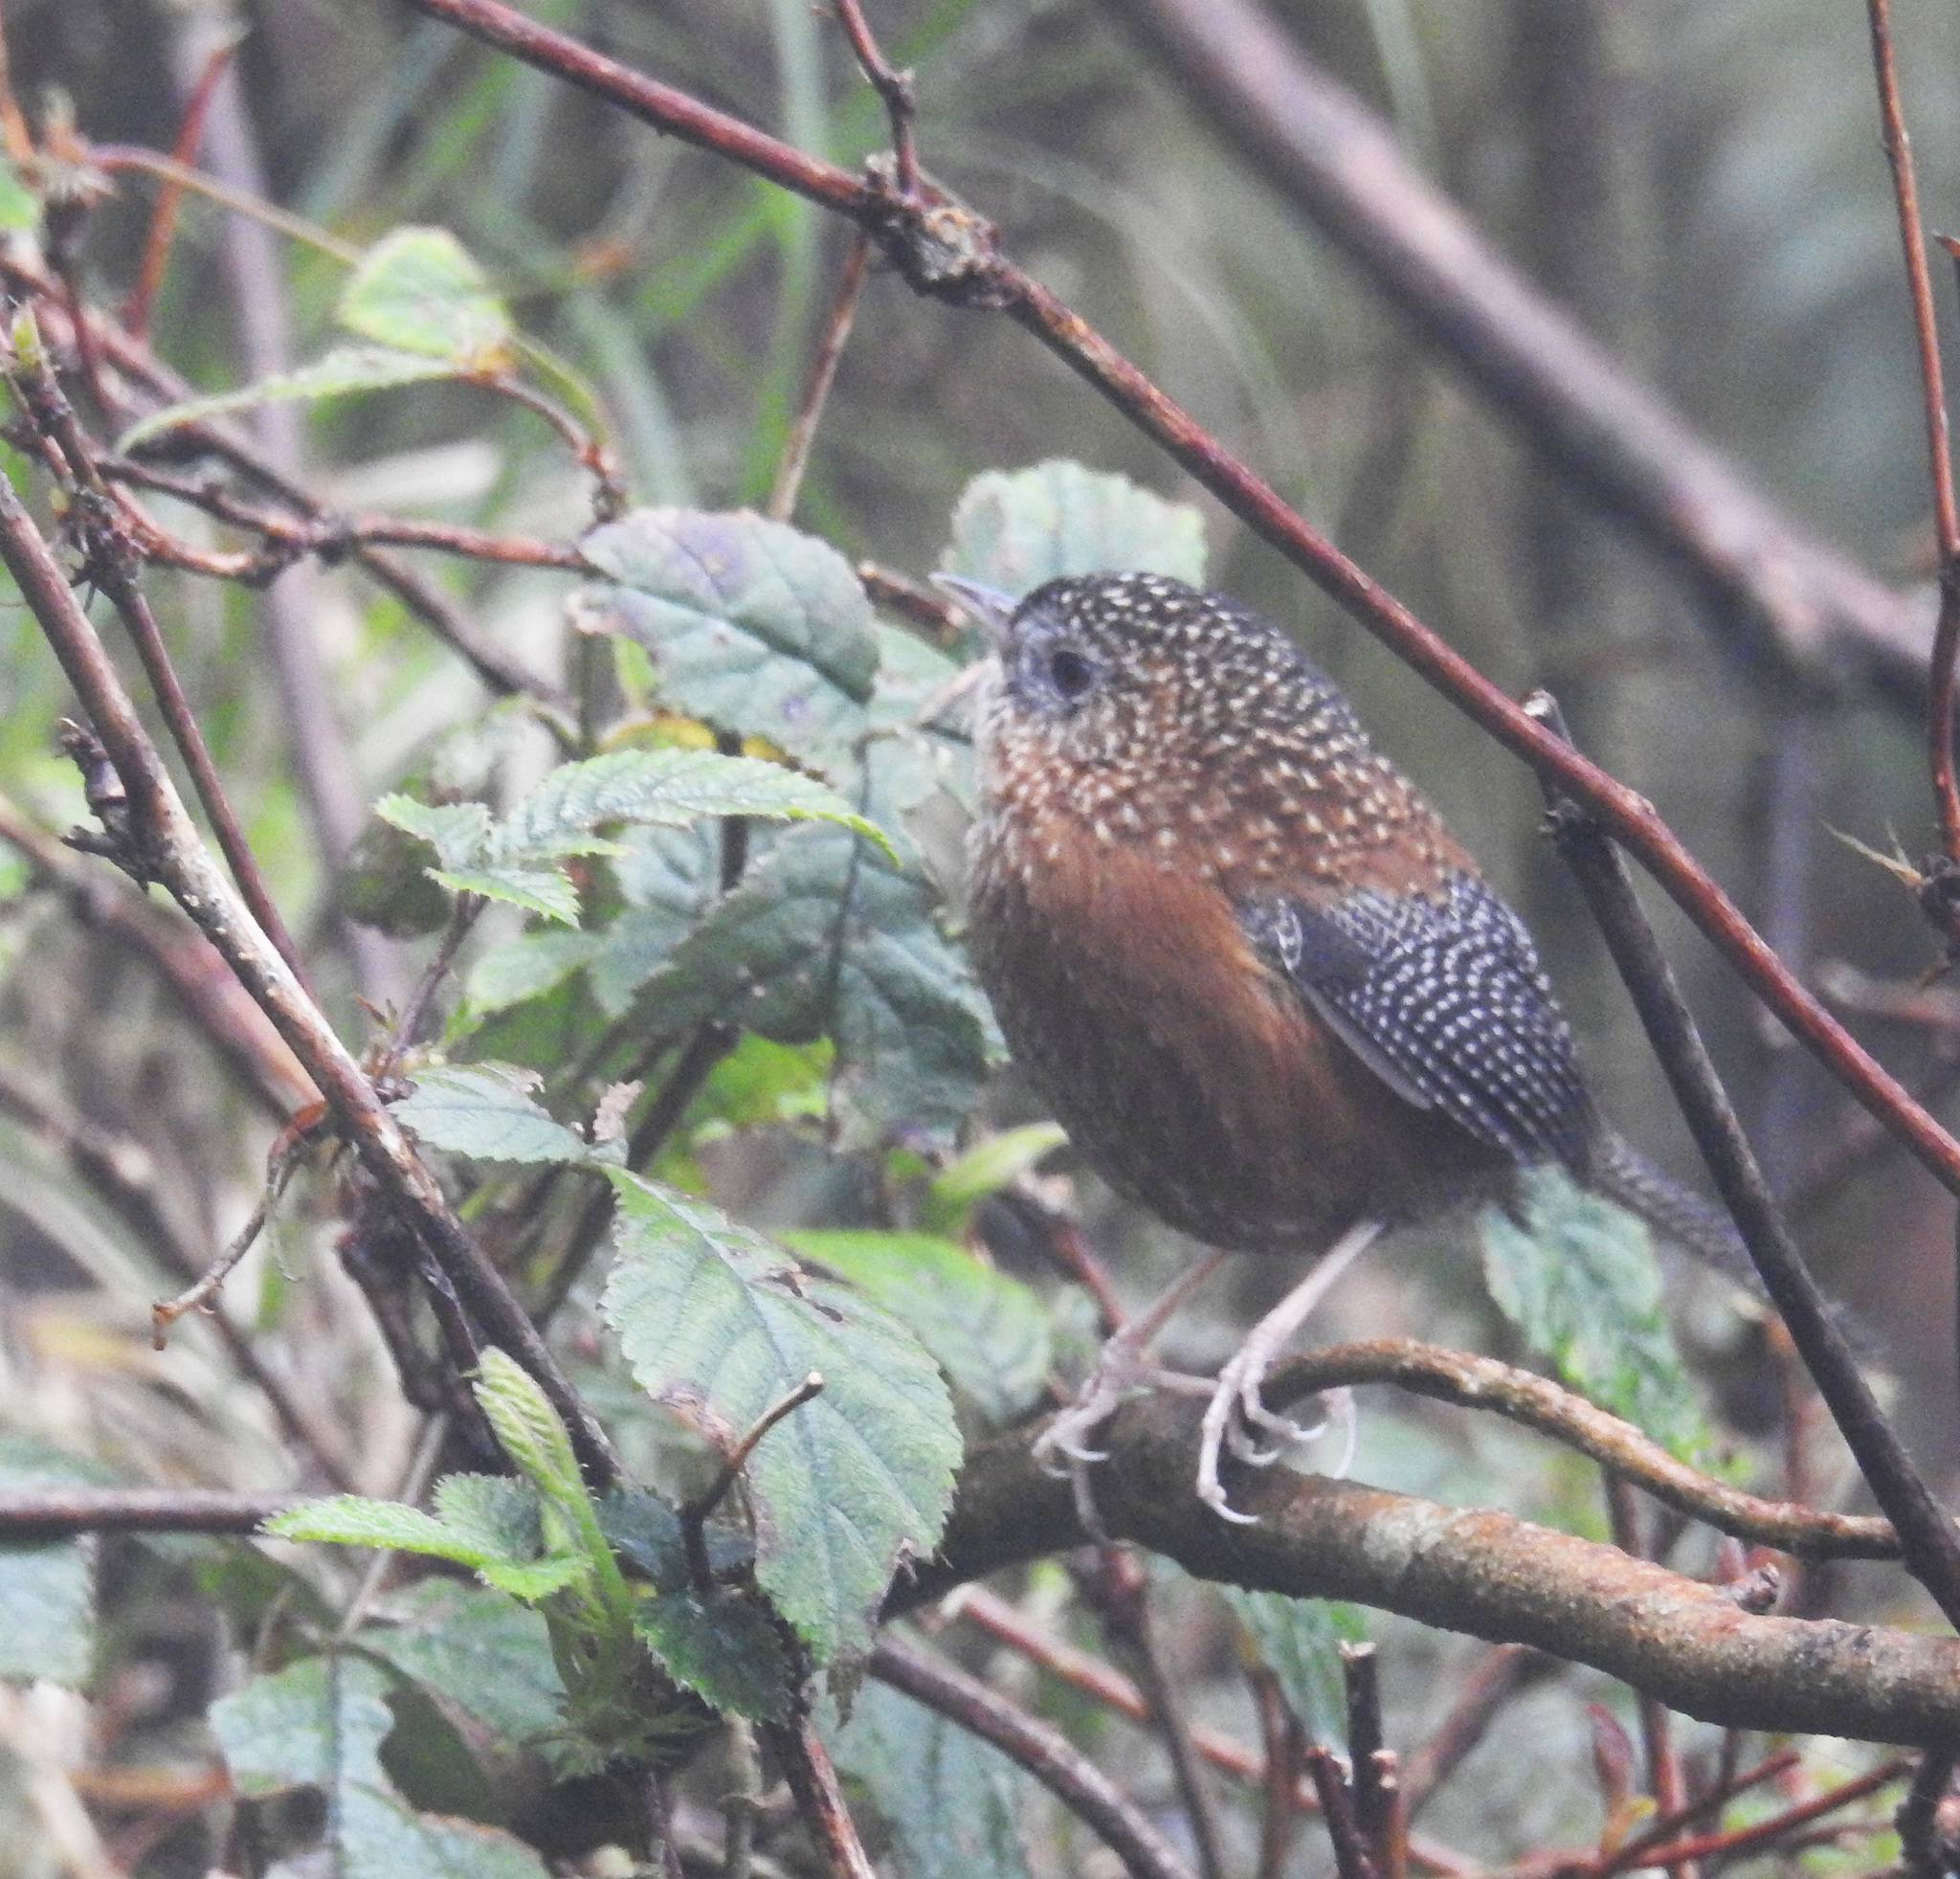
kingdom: Animalia
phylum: Chordata
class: Aves
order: Passeriformes
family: Timaliidae
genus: Spelaeornis
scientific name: Spelaeornis troglodytoides
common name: Bar-winged wren-babbler
